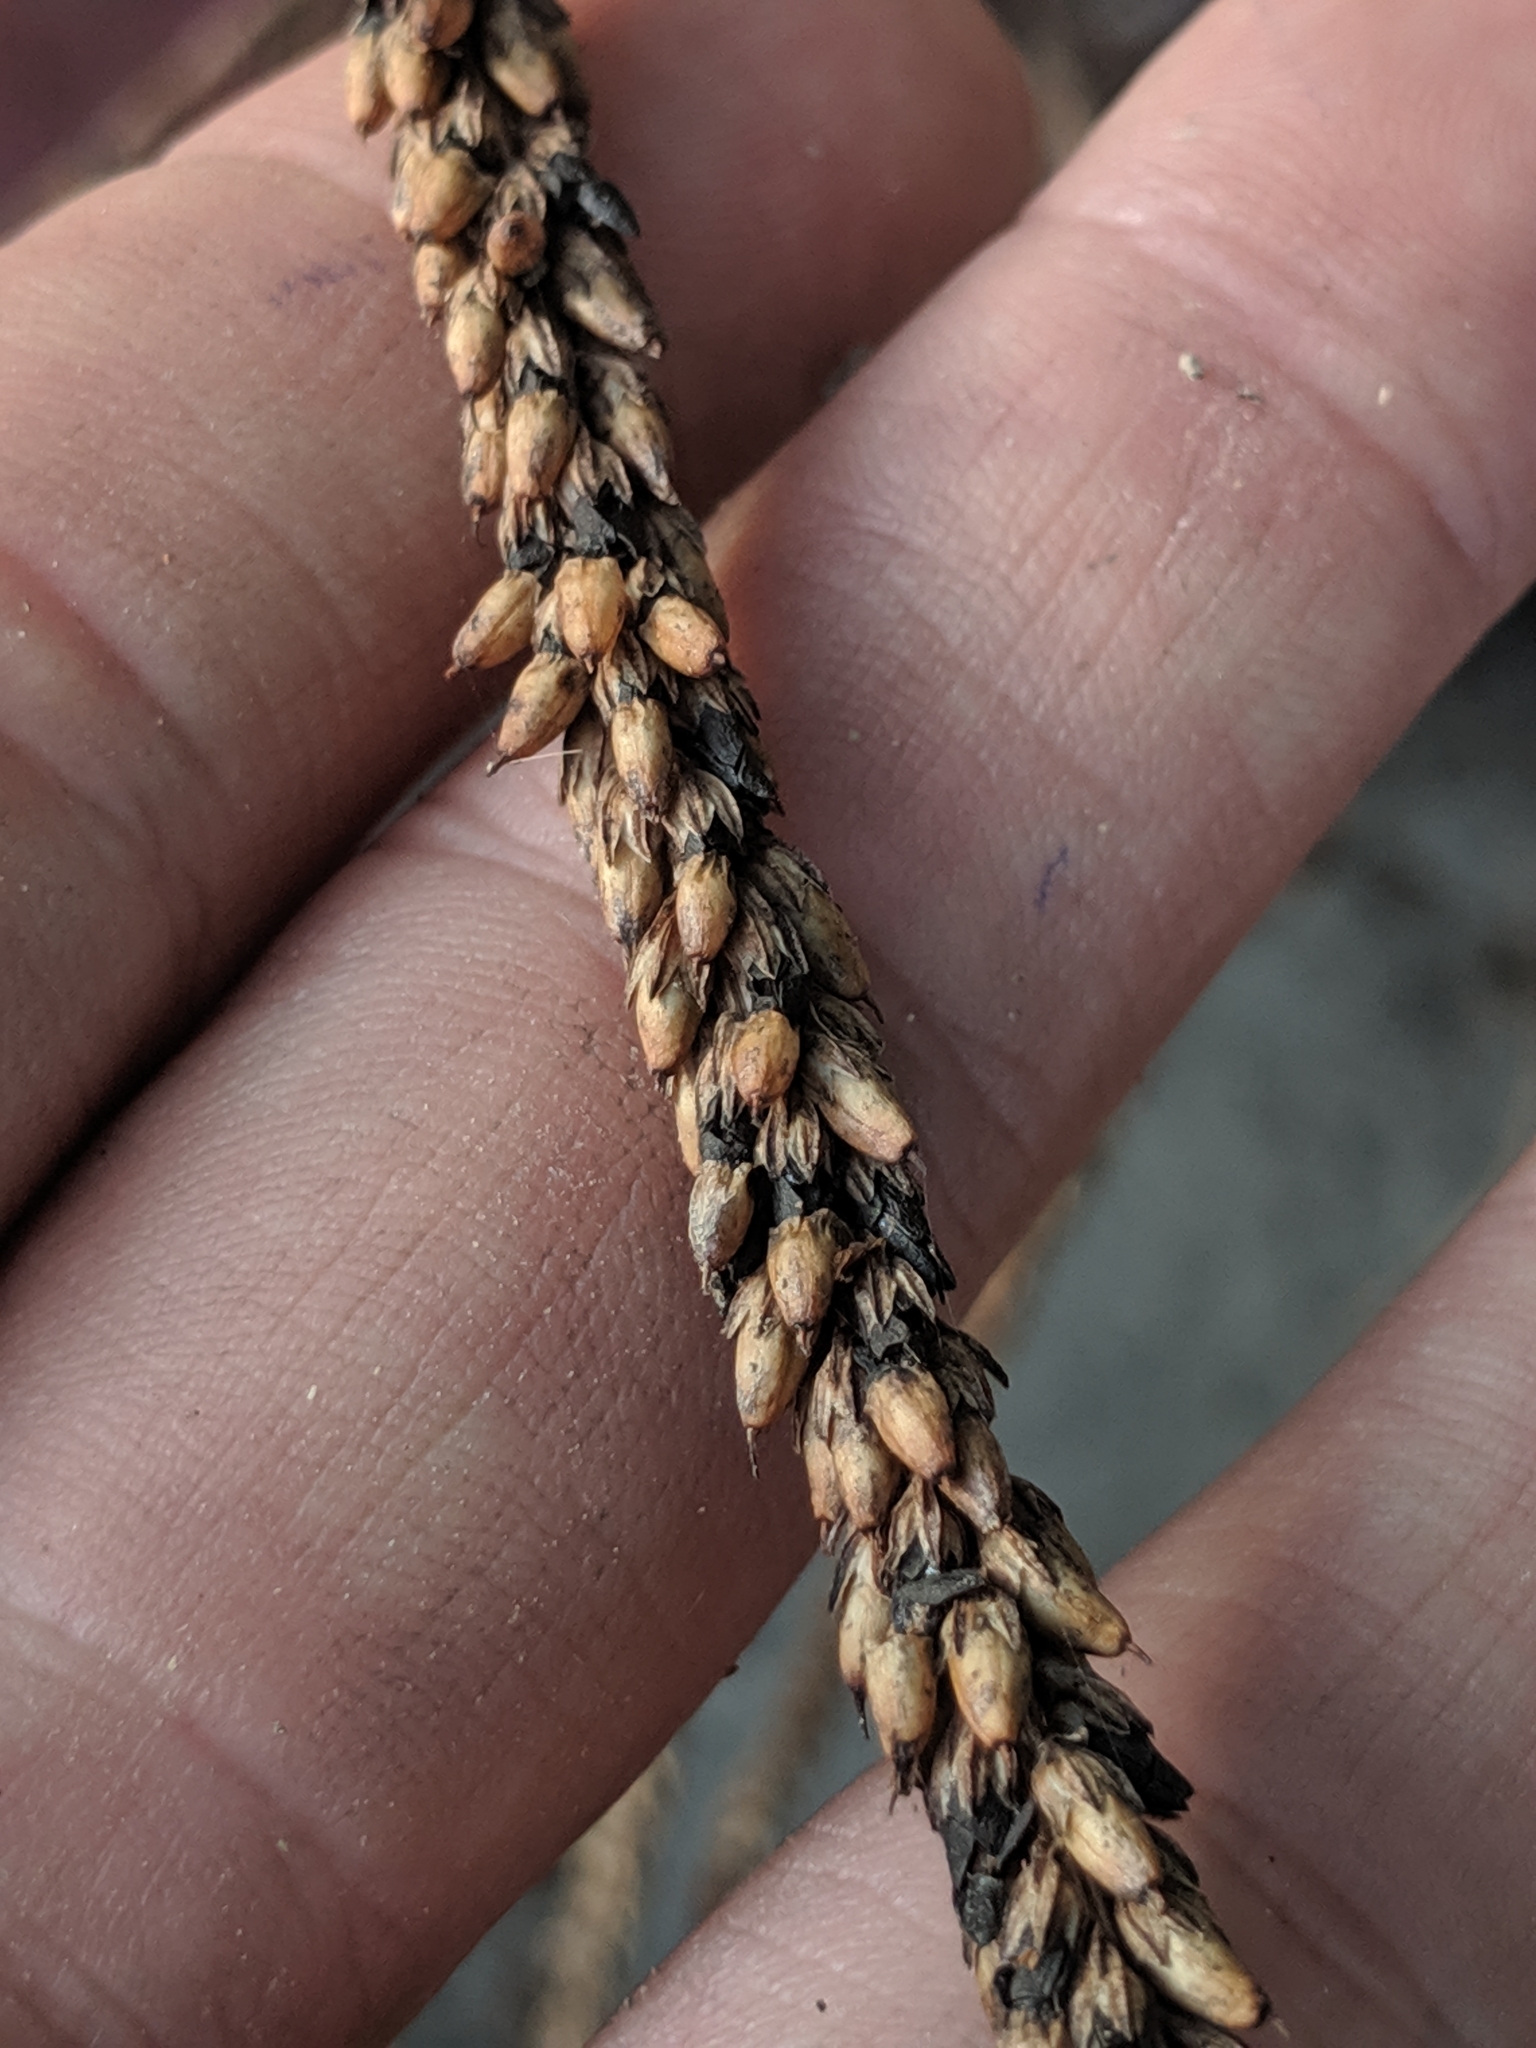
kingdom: Plantae
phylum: Tracheophyta
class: Magnoliopsida
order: Lamiales
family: Plantaginaceae
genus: Plantago
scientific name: Plantago rugelii
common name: American plantain
